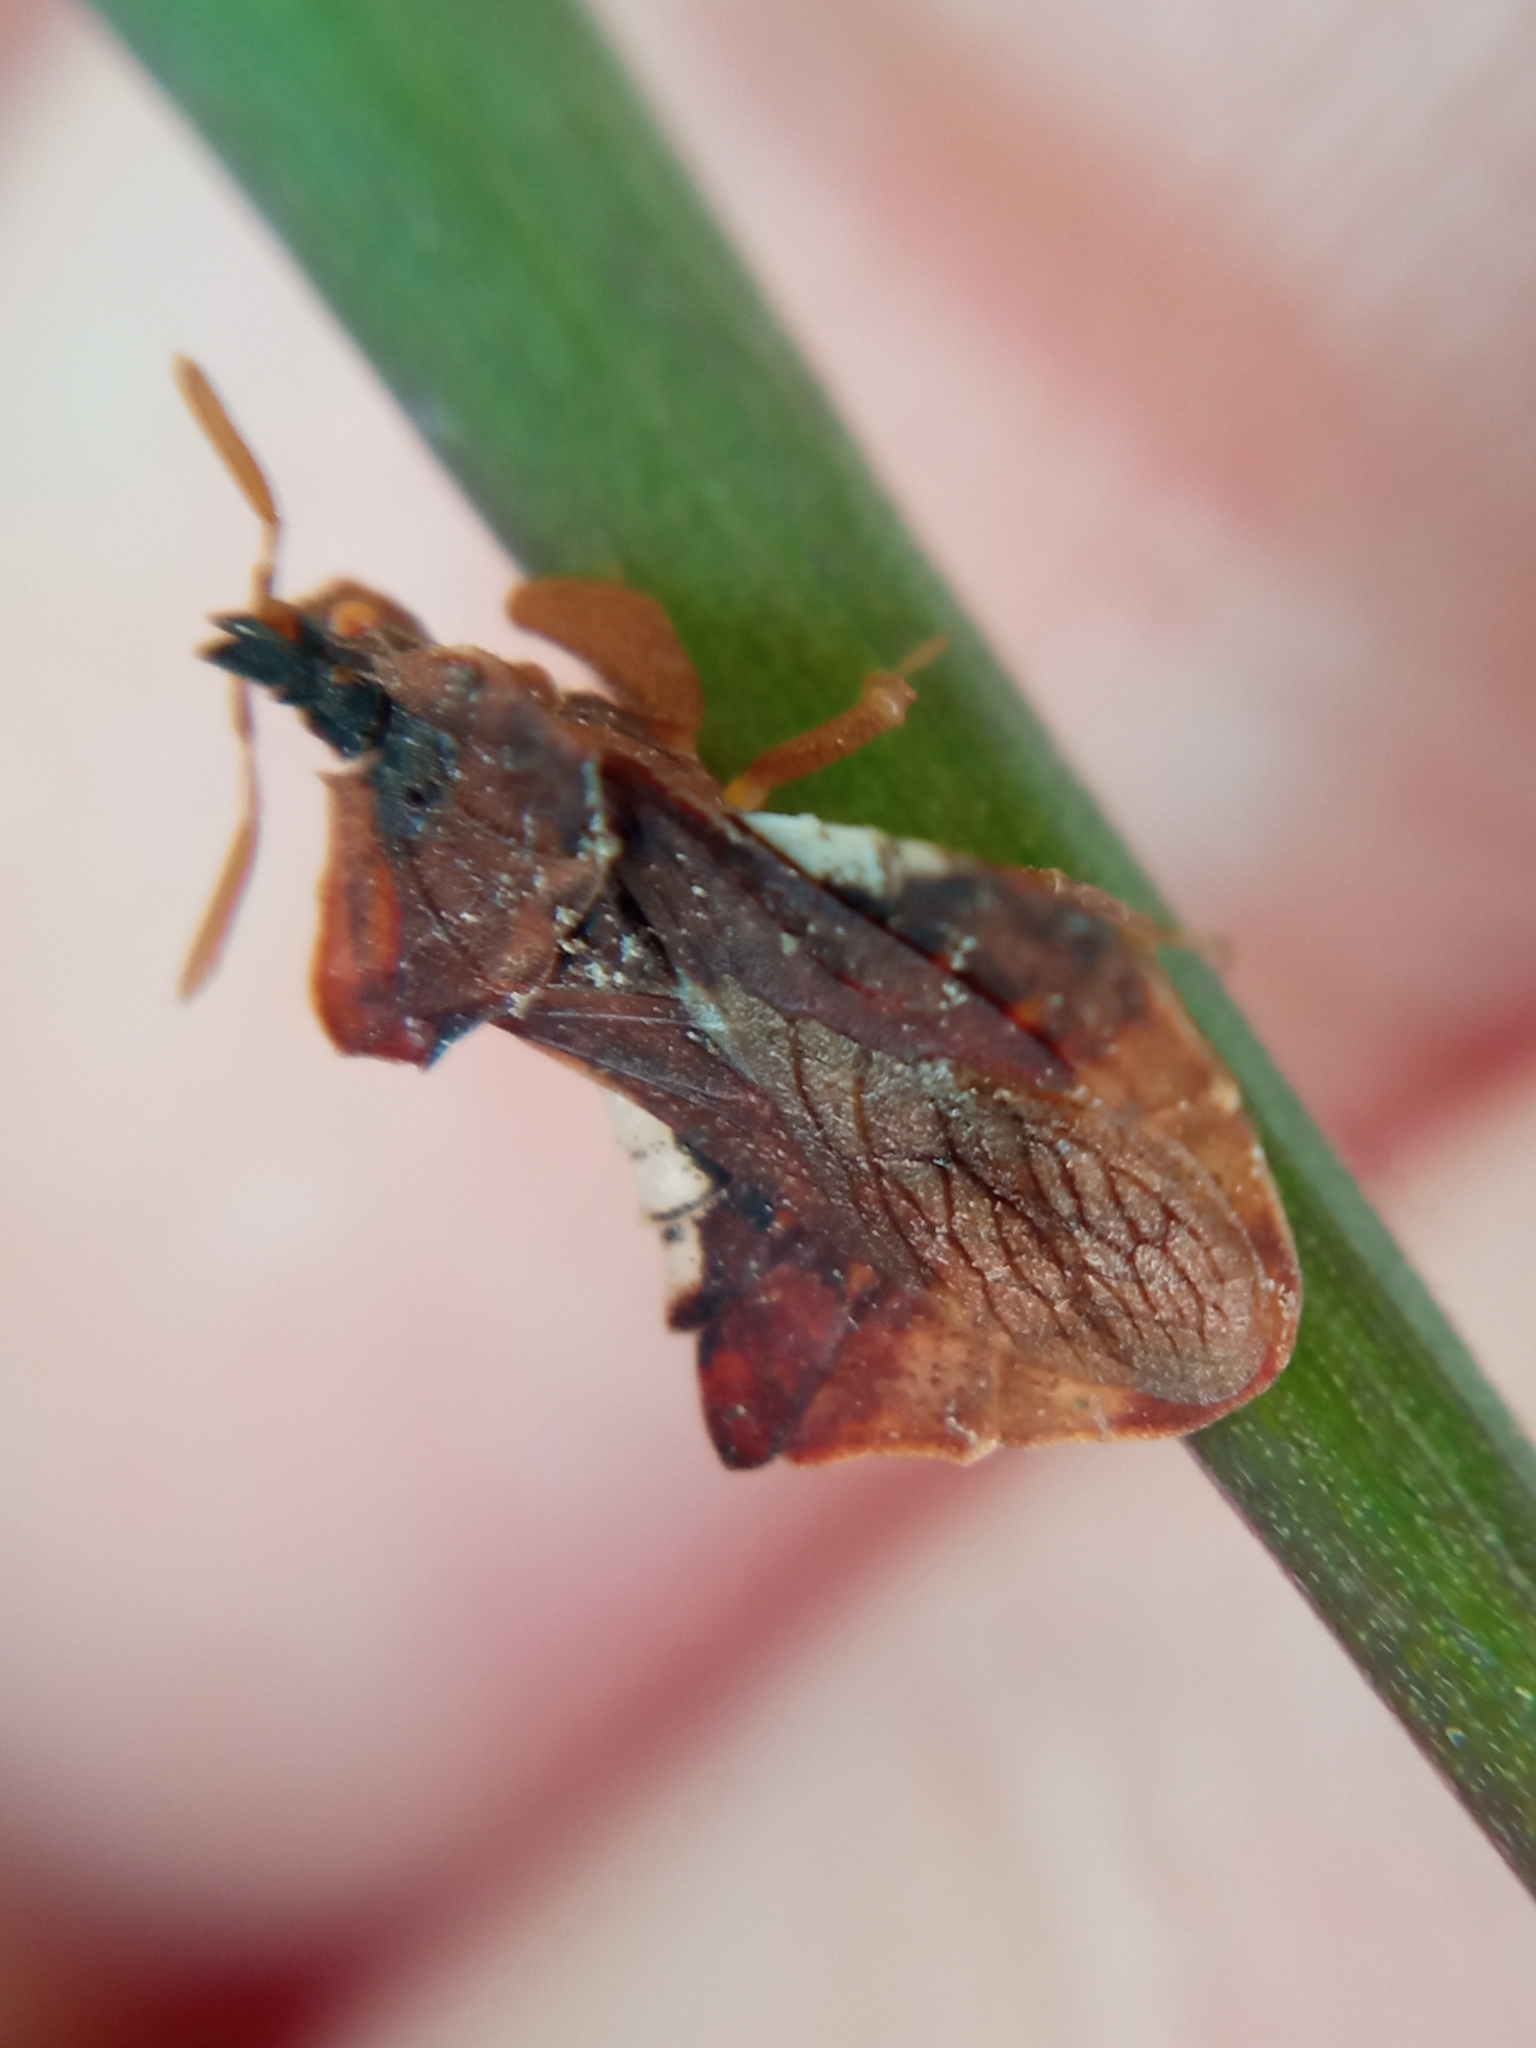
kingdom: Animalia
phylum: Arthropoda
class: Insecta
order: Hemiptera
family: Reduviidae
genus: Phymata
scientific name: Phymata crassipes
